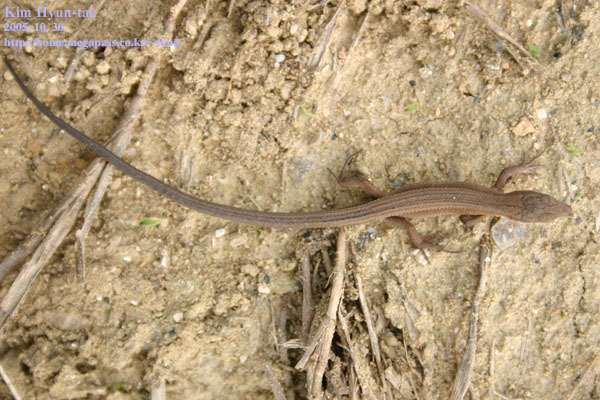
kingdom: Animalia
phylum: Chordata
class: Squamata
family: Lacertidae
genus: Takydromus
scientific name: Takydromus wolteri
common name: Mountain grass lizard
